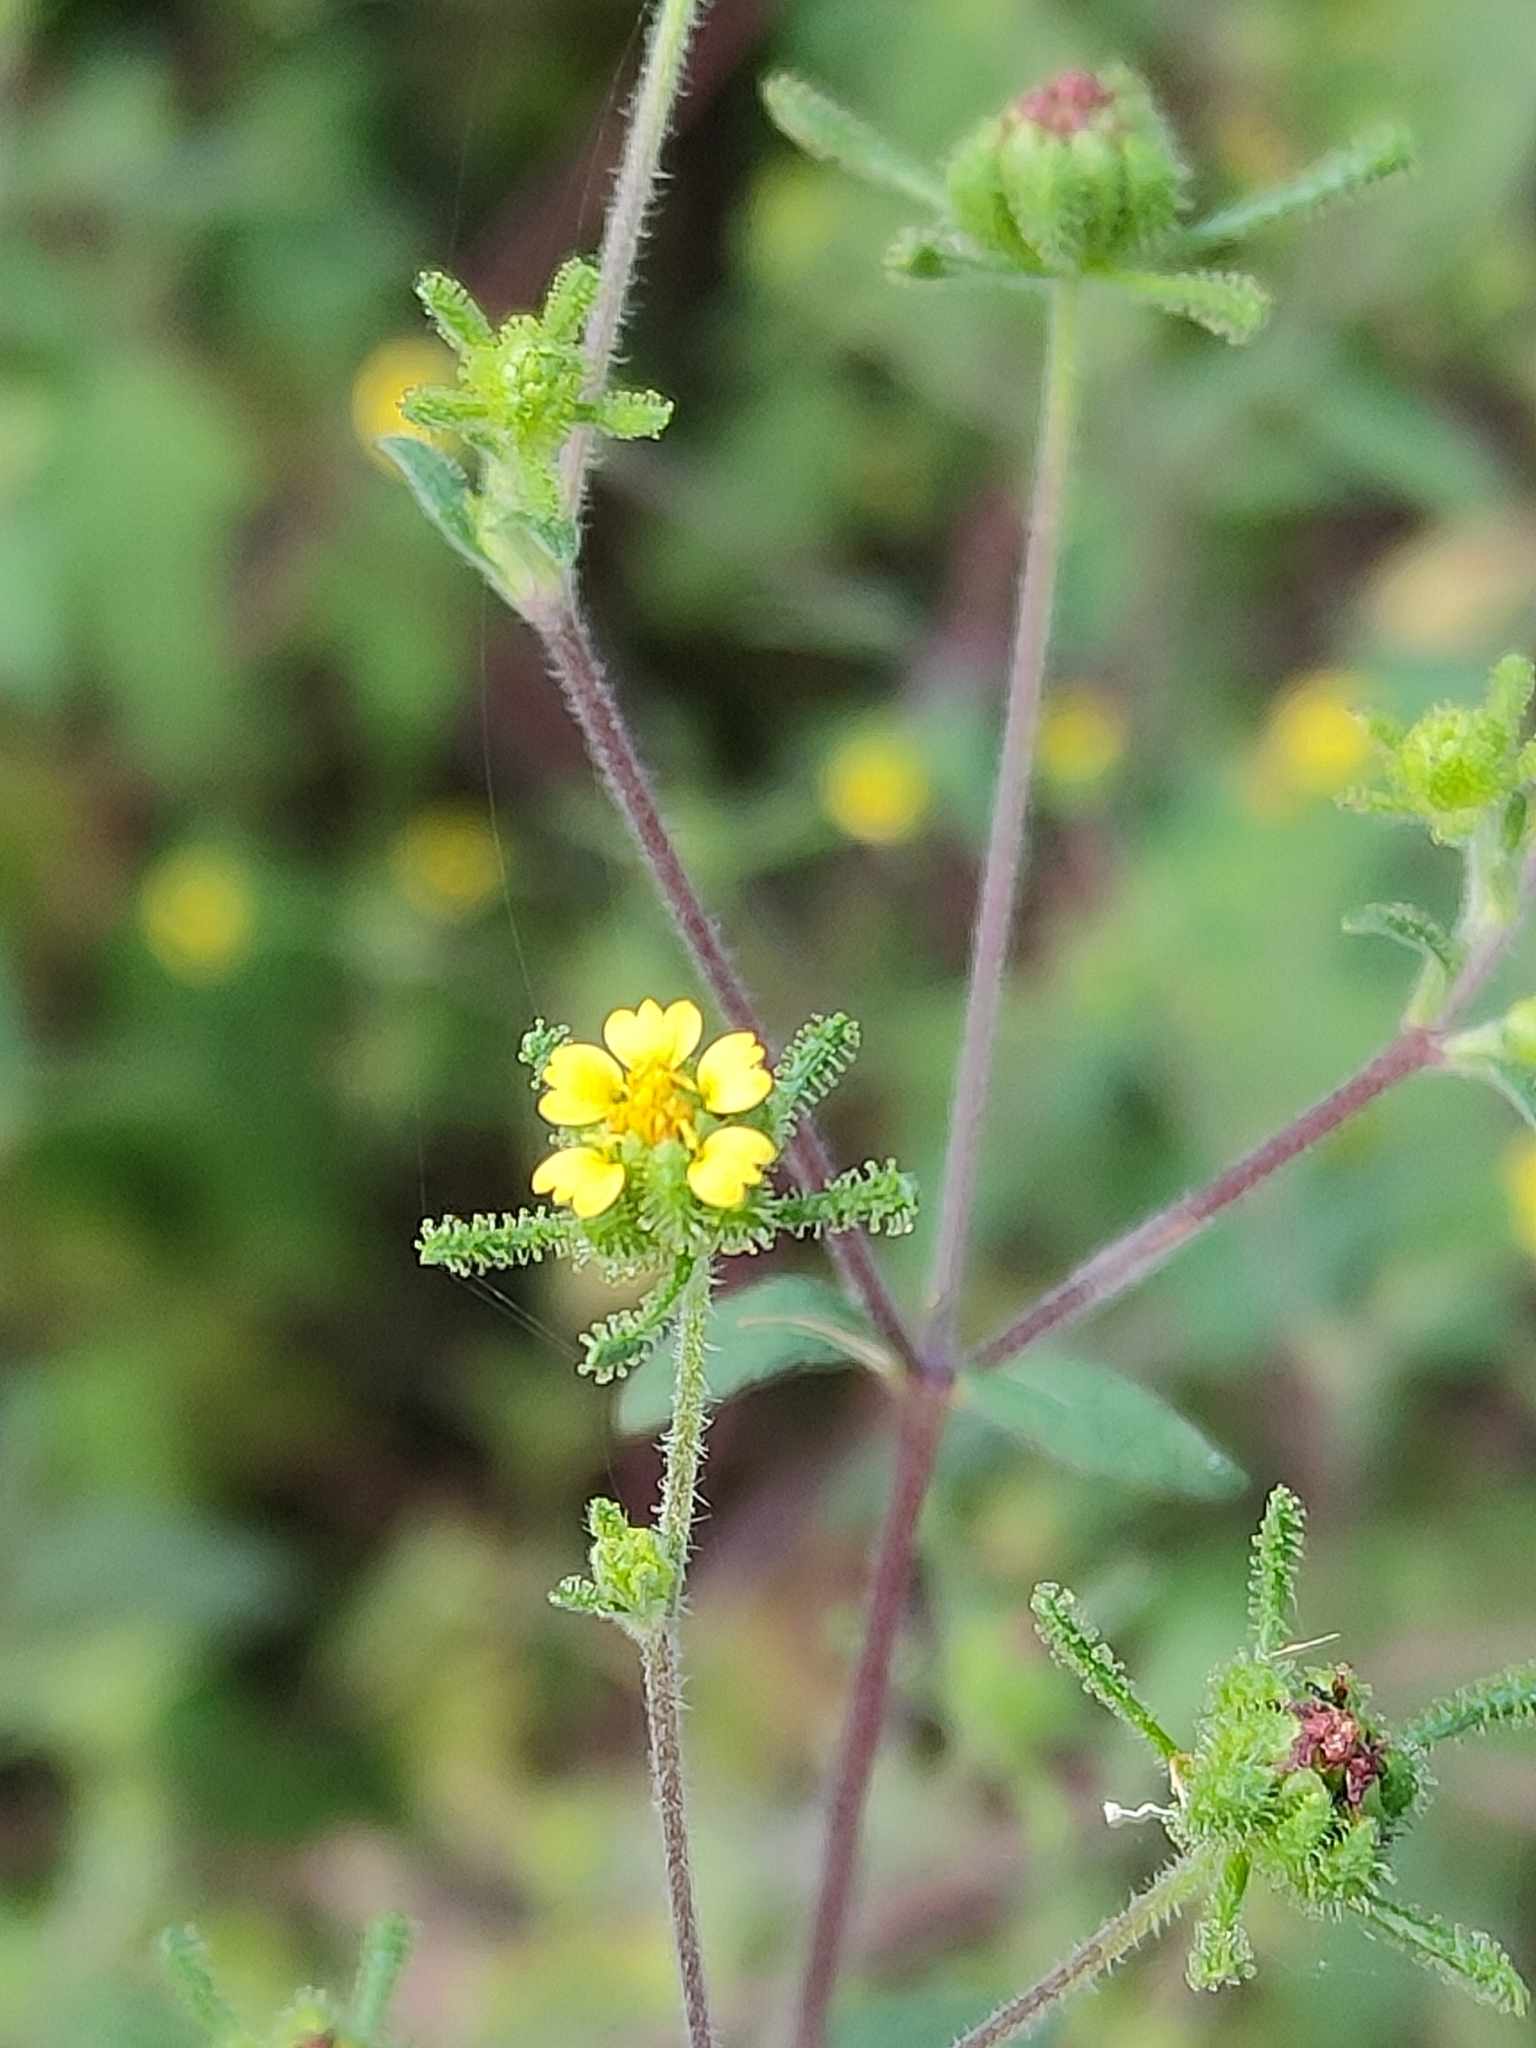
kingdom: Plantae
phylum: Tracheophyta
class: Magnoliopsida
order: Asterales
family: Asteraceae
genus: Sigesbeckia
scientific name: Sigesbeckia orientalis
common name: Eastern st paul's-wort
